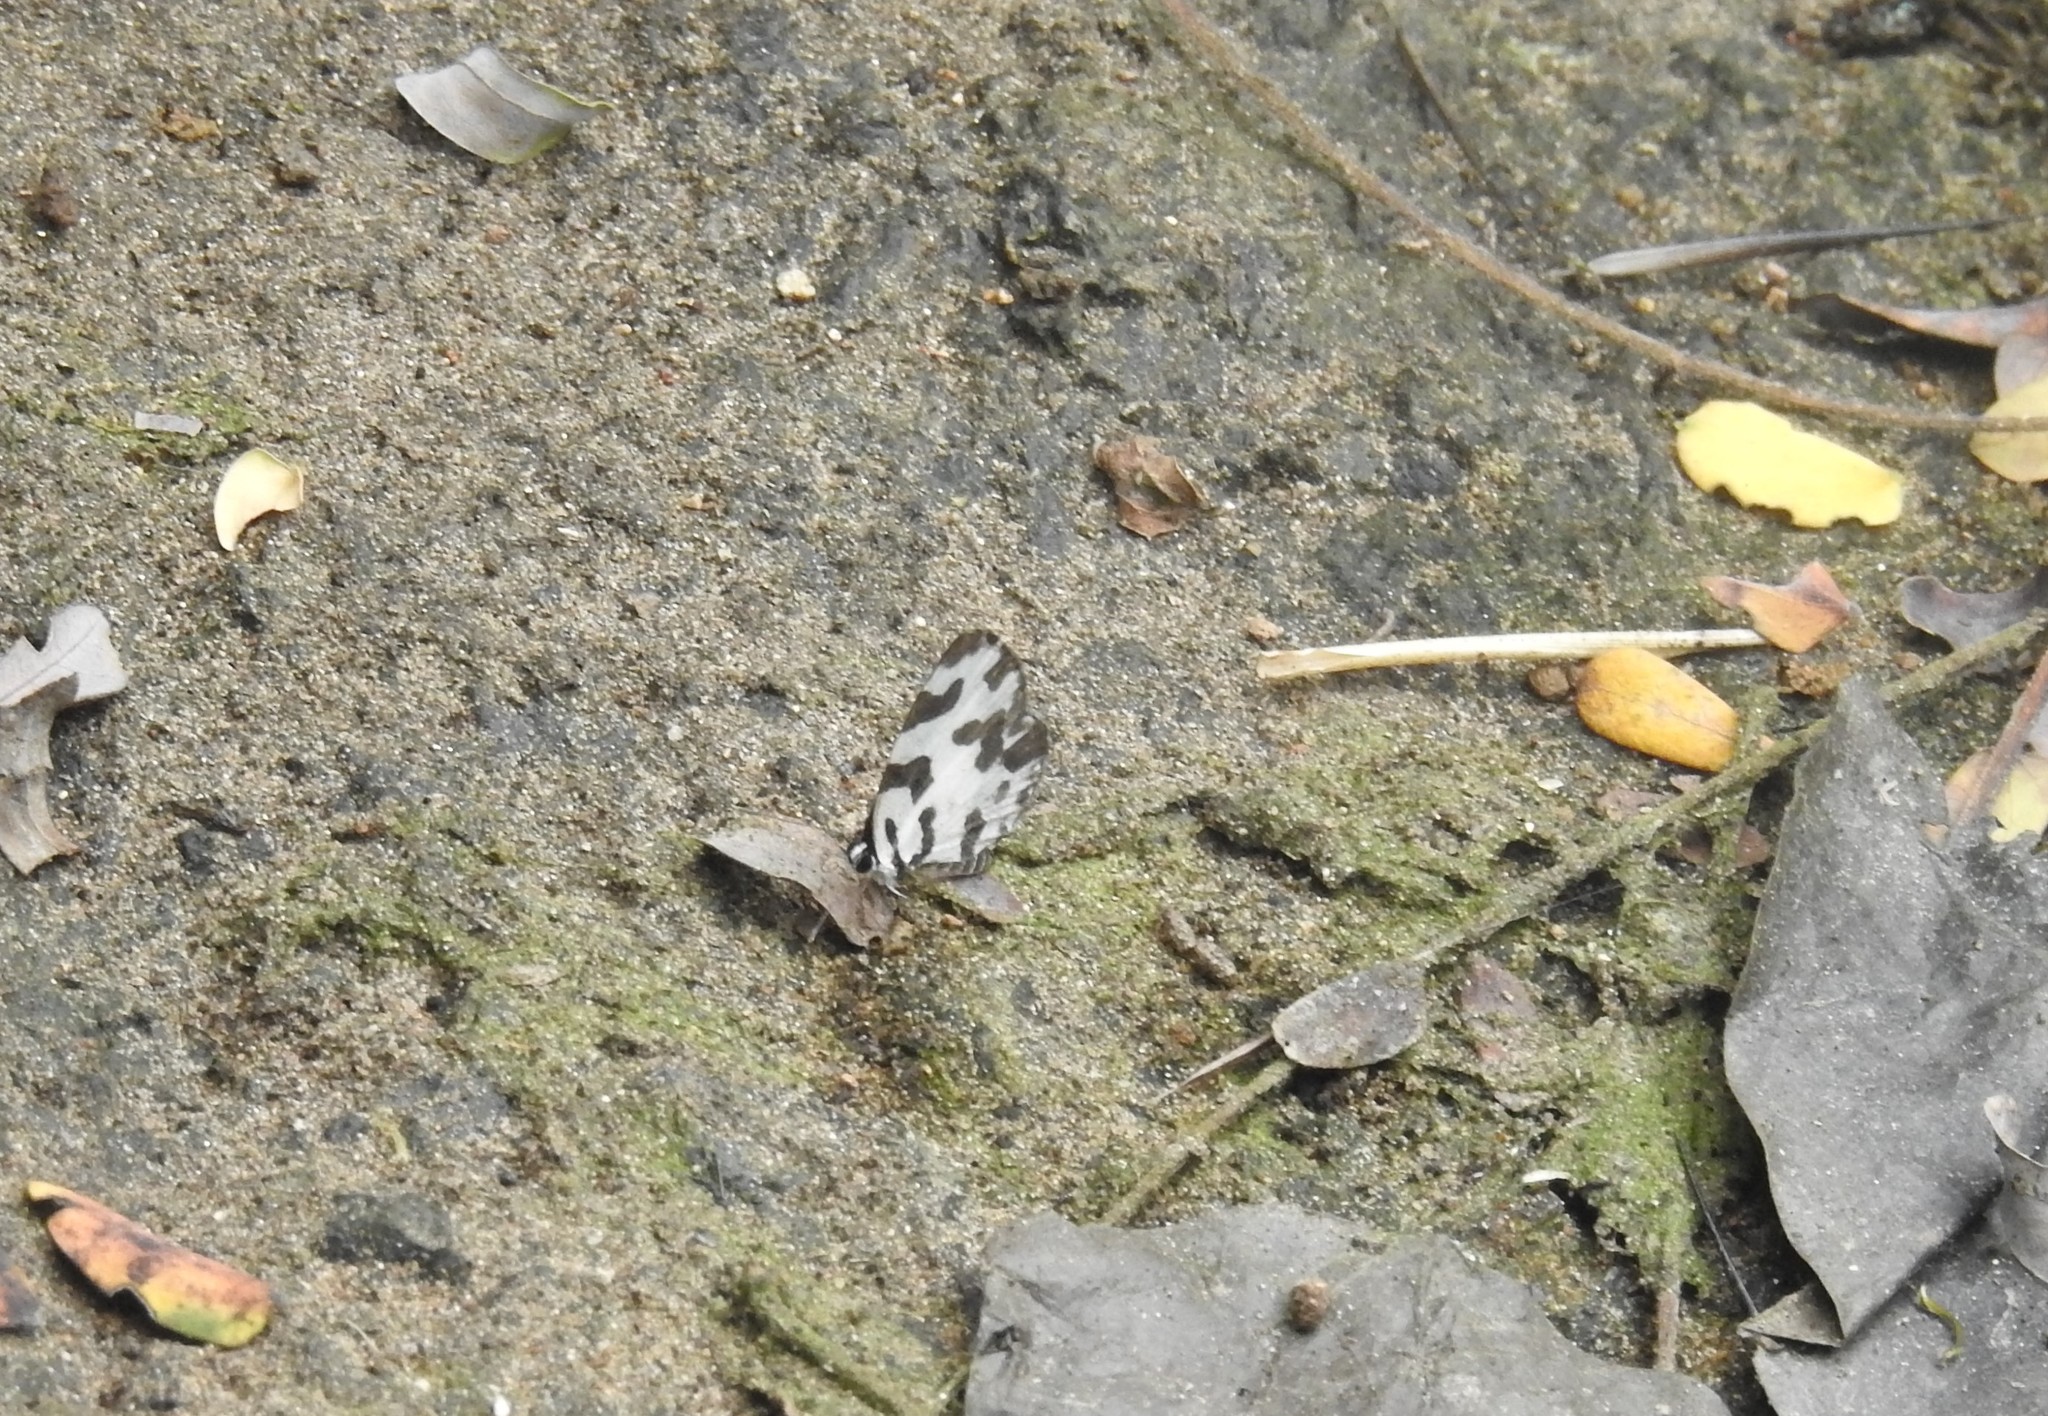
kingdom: Animalia
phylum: Arthropoda
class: Insecta
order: Lepidoptera
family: Lycaenidae
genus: Caleta
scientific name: Caleta decidia
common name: Angled pierrot
